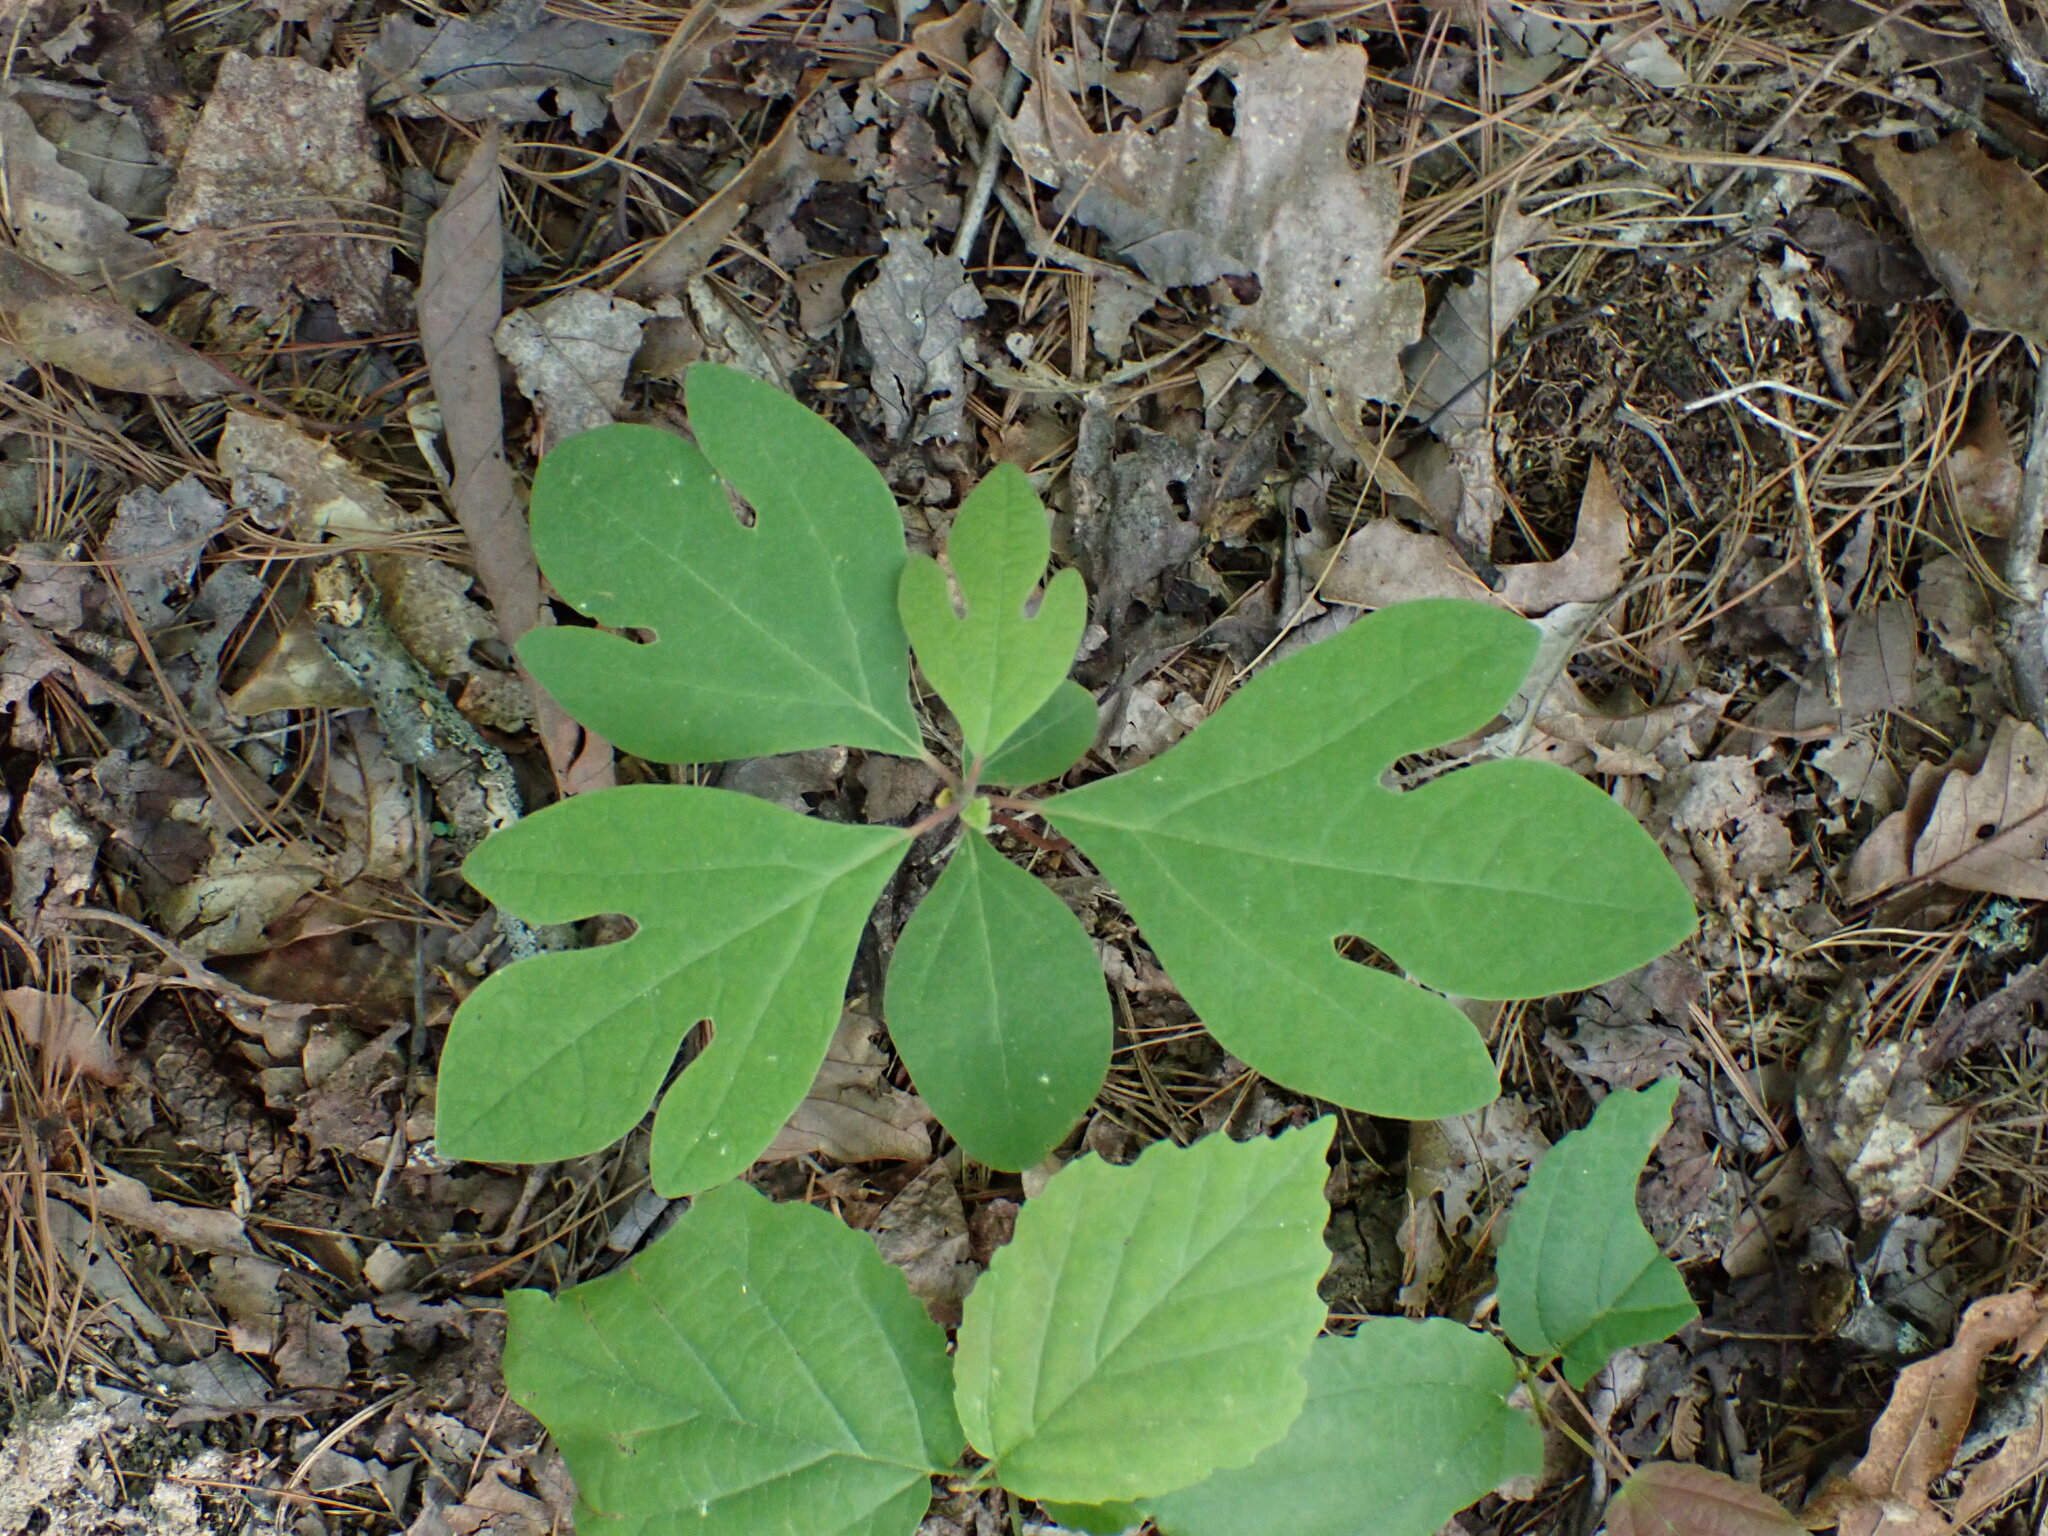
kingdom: Plantae
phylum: Tracheophyta
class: Magnoliopsida
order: Laurales
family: Lauraceae
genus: Sassafras
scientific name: Sassafras albidum
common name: Sassafras
